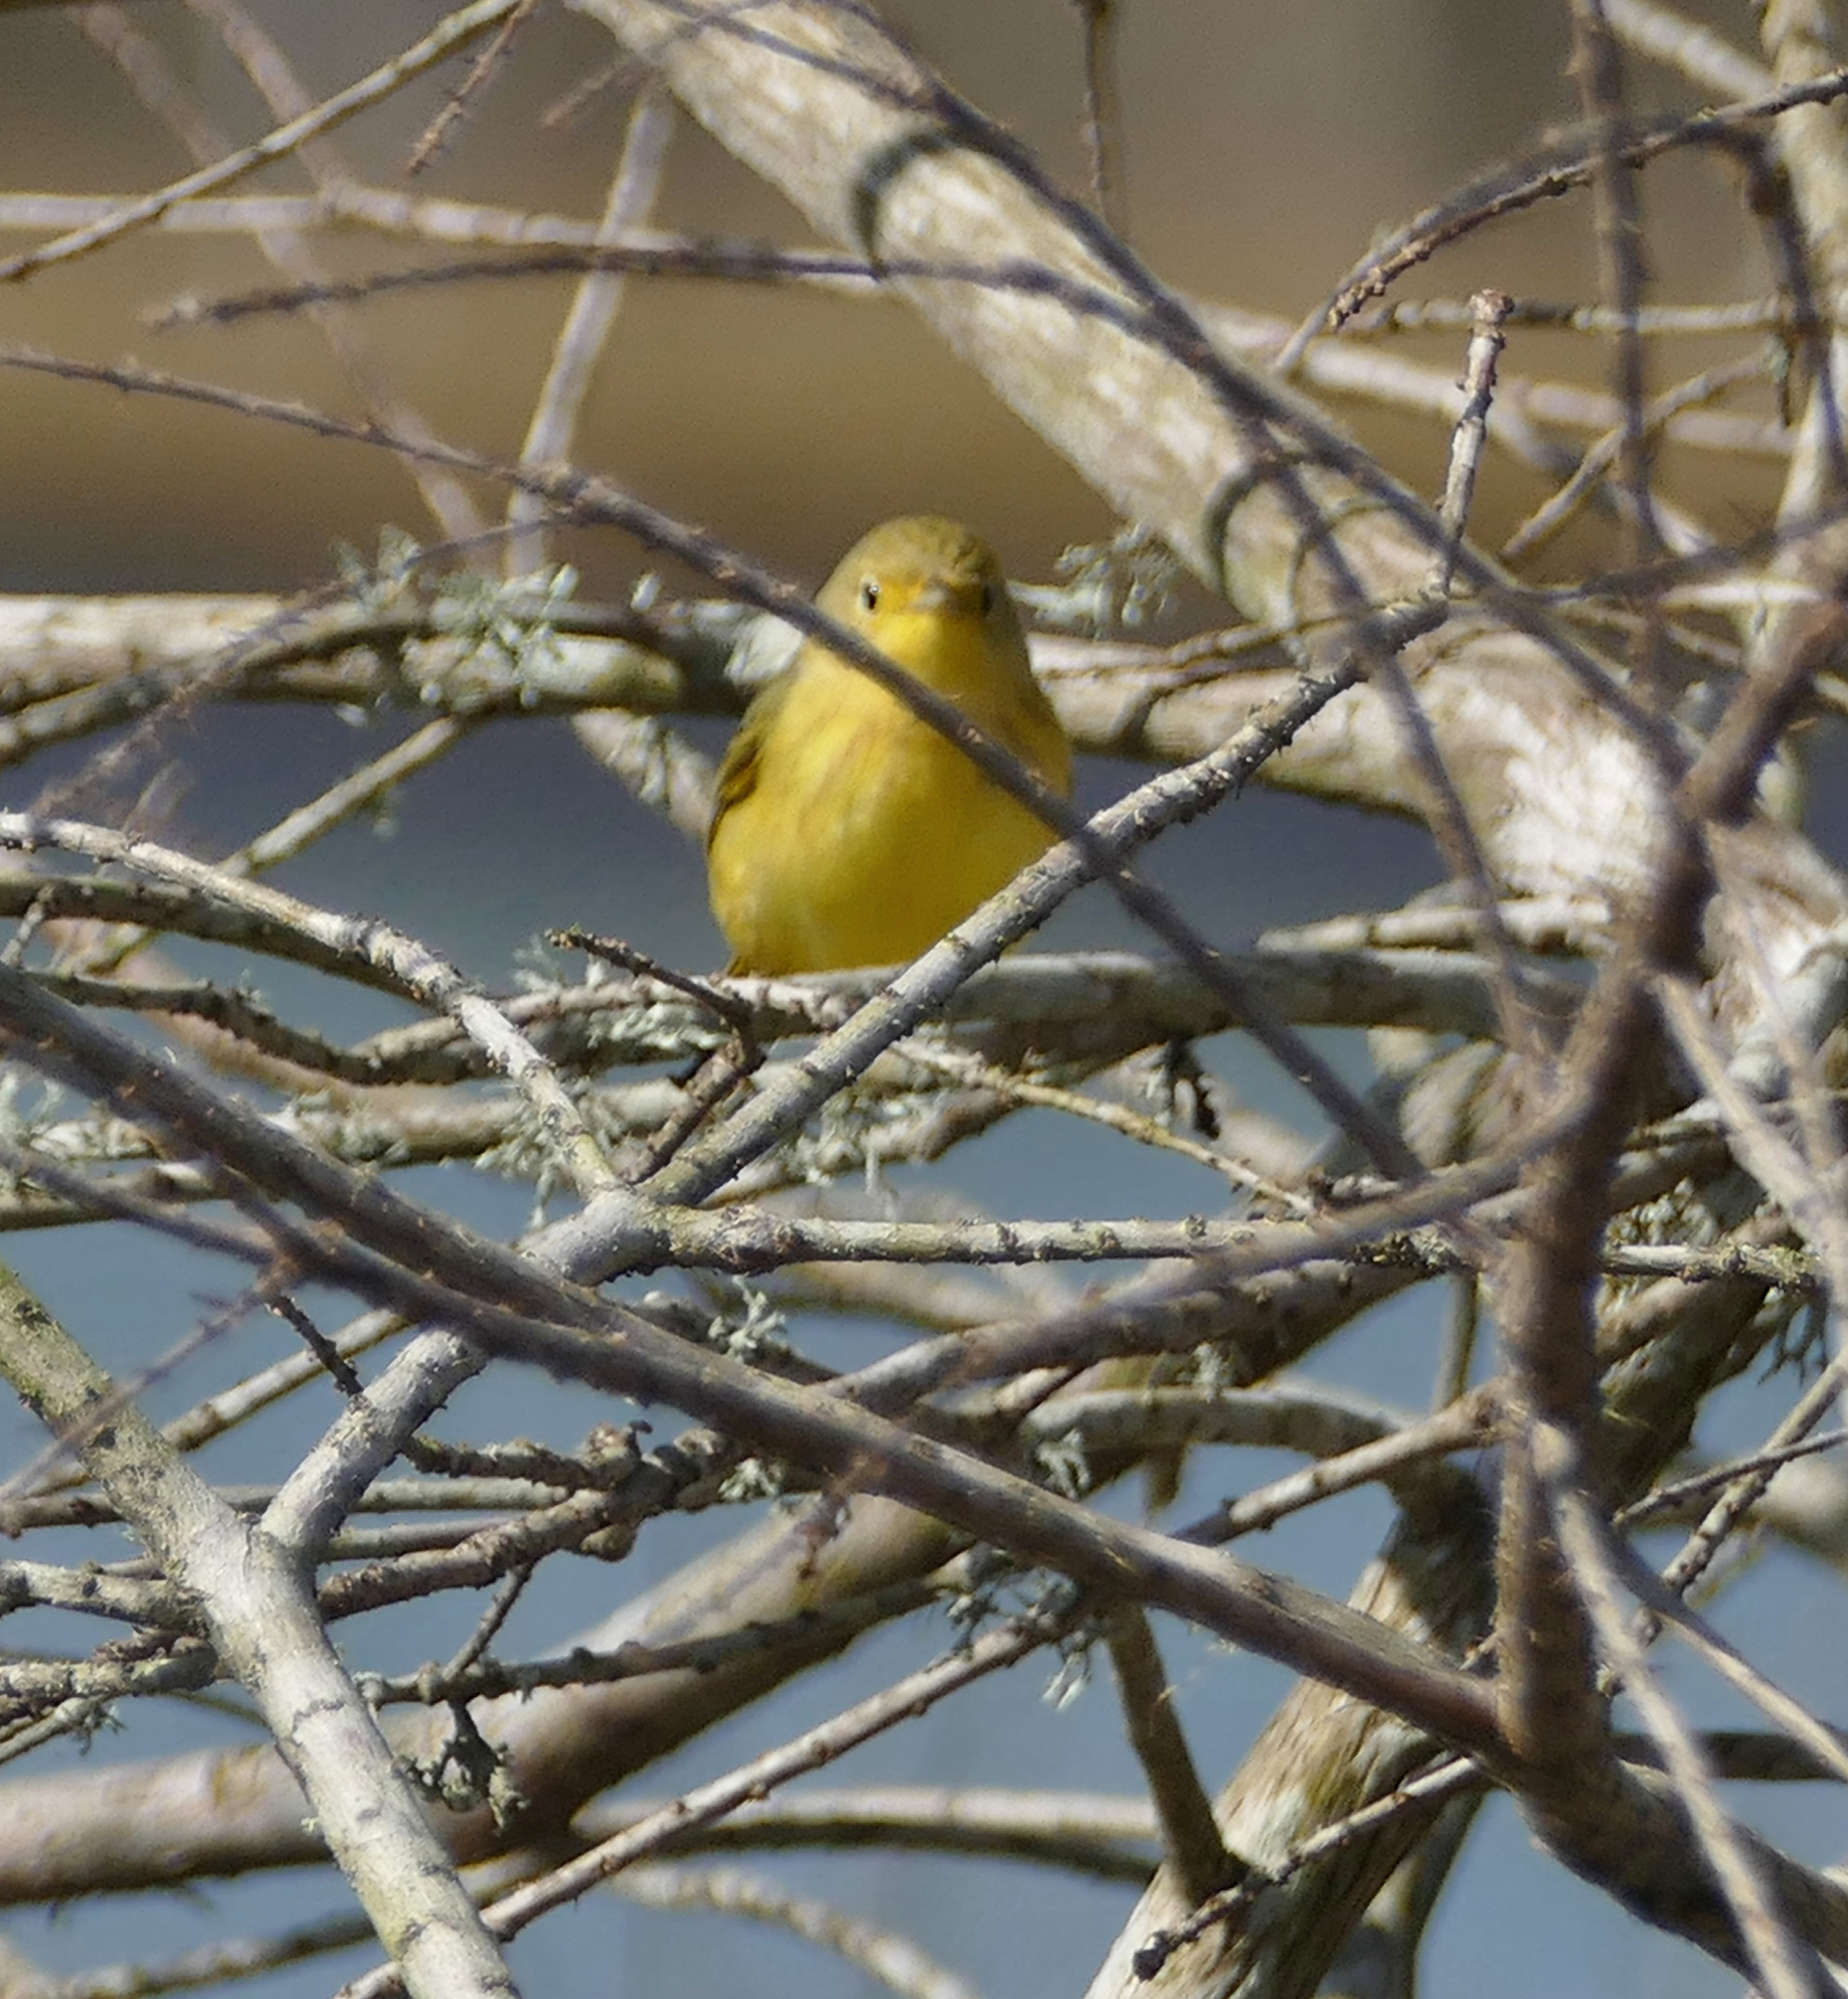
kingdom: Animalia
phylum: Chordata
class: Aves
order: Passeriformes
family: Parulidae
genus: Setophaga
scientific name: Setophaga petechia
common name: Yellow warbler
